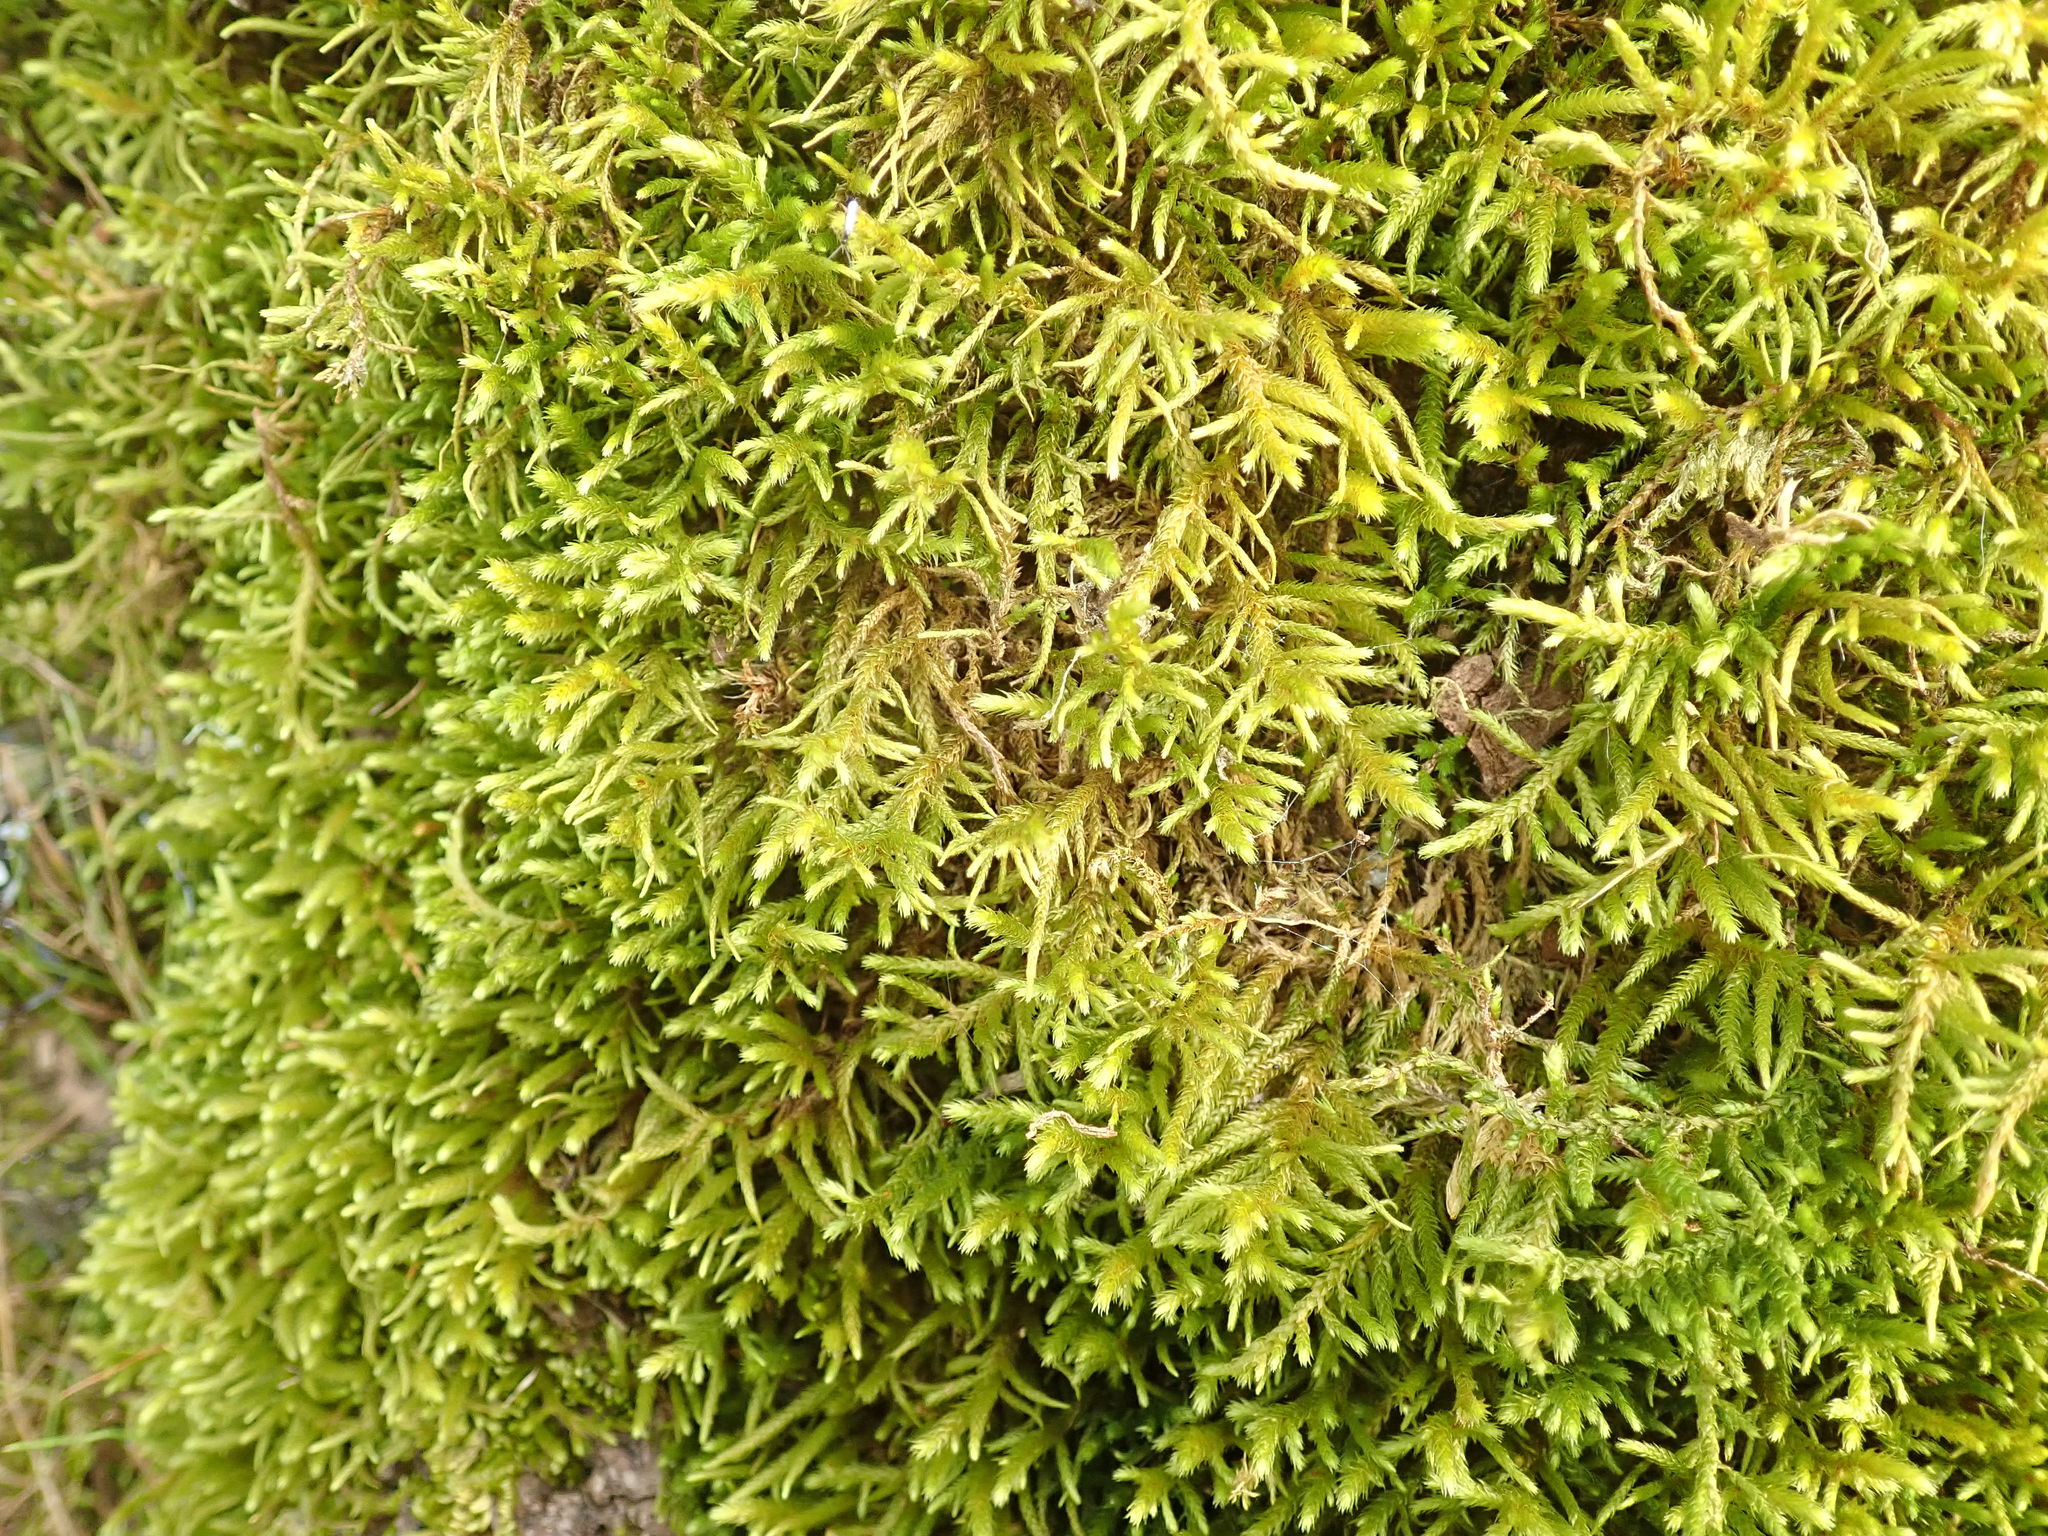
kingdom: Plantae
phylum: Bryophyta
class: Bryopsida
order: Hypnales
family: Antitrichiaceae
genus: Antitrichia
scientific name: Antitrichia californica
